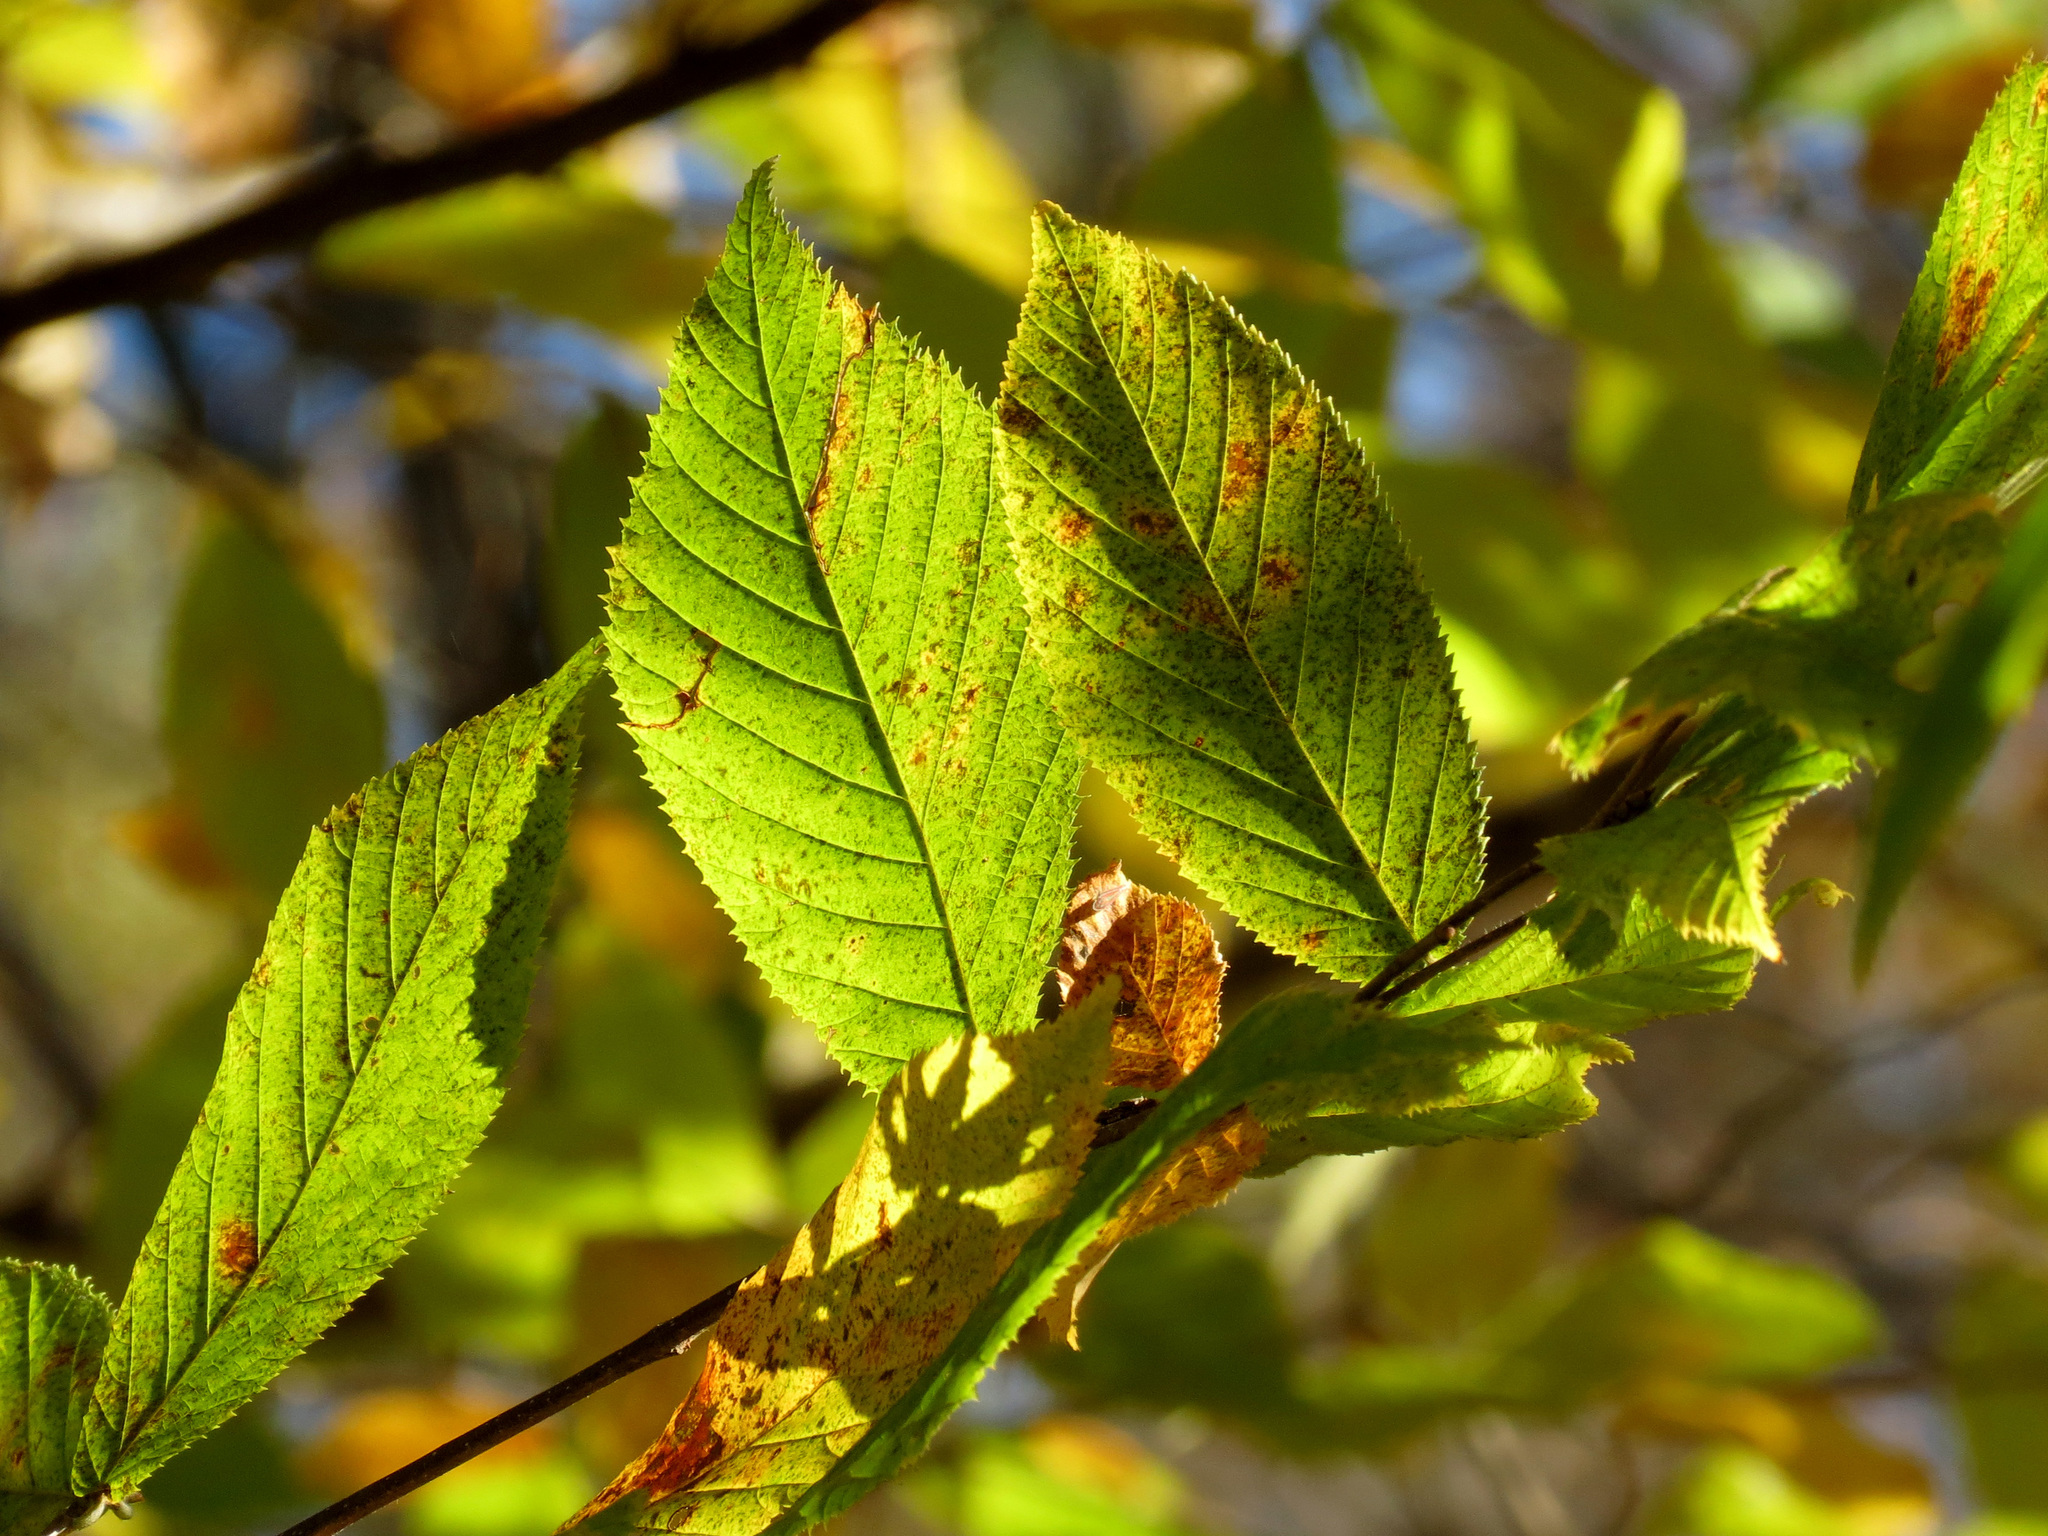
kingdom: Plantae
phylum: Tracheophyta
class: Magnoliopsida
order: Fagales
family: Betulaceae
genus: Ostrya
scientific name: Ostrya virginiana
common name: Ironwood
